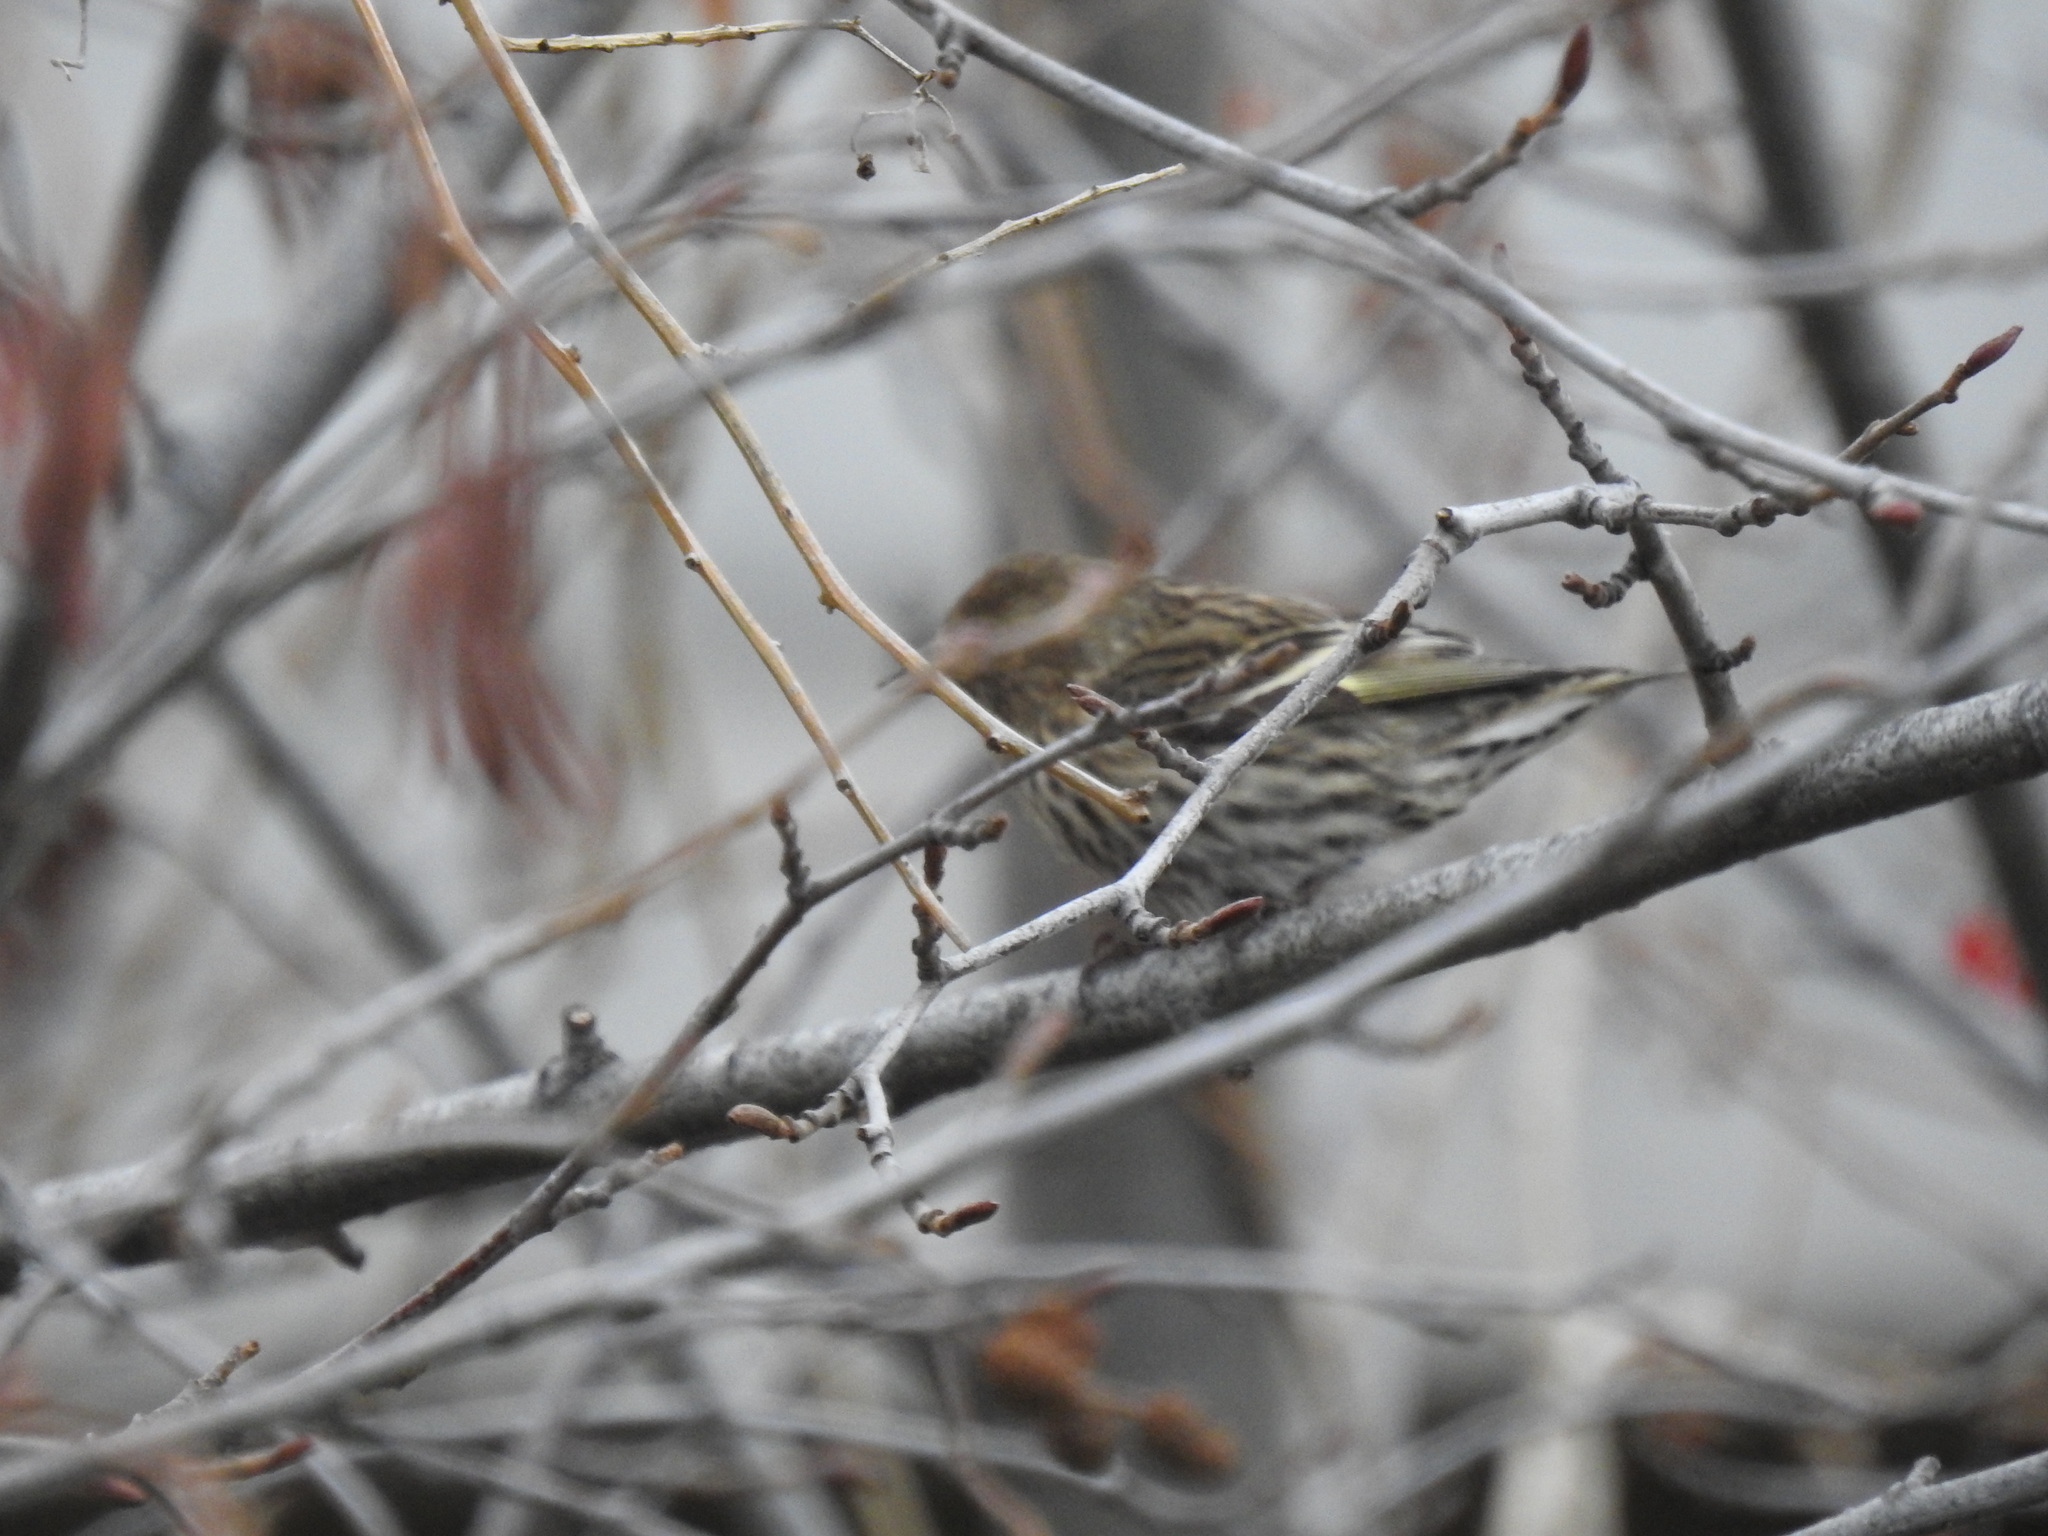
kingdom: Animalia
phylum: Chordata
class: Aves
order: Passeriformes
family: Fringillidae
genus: Spinus
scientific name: Spinus pinus
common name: Pine siskin
